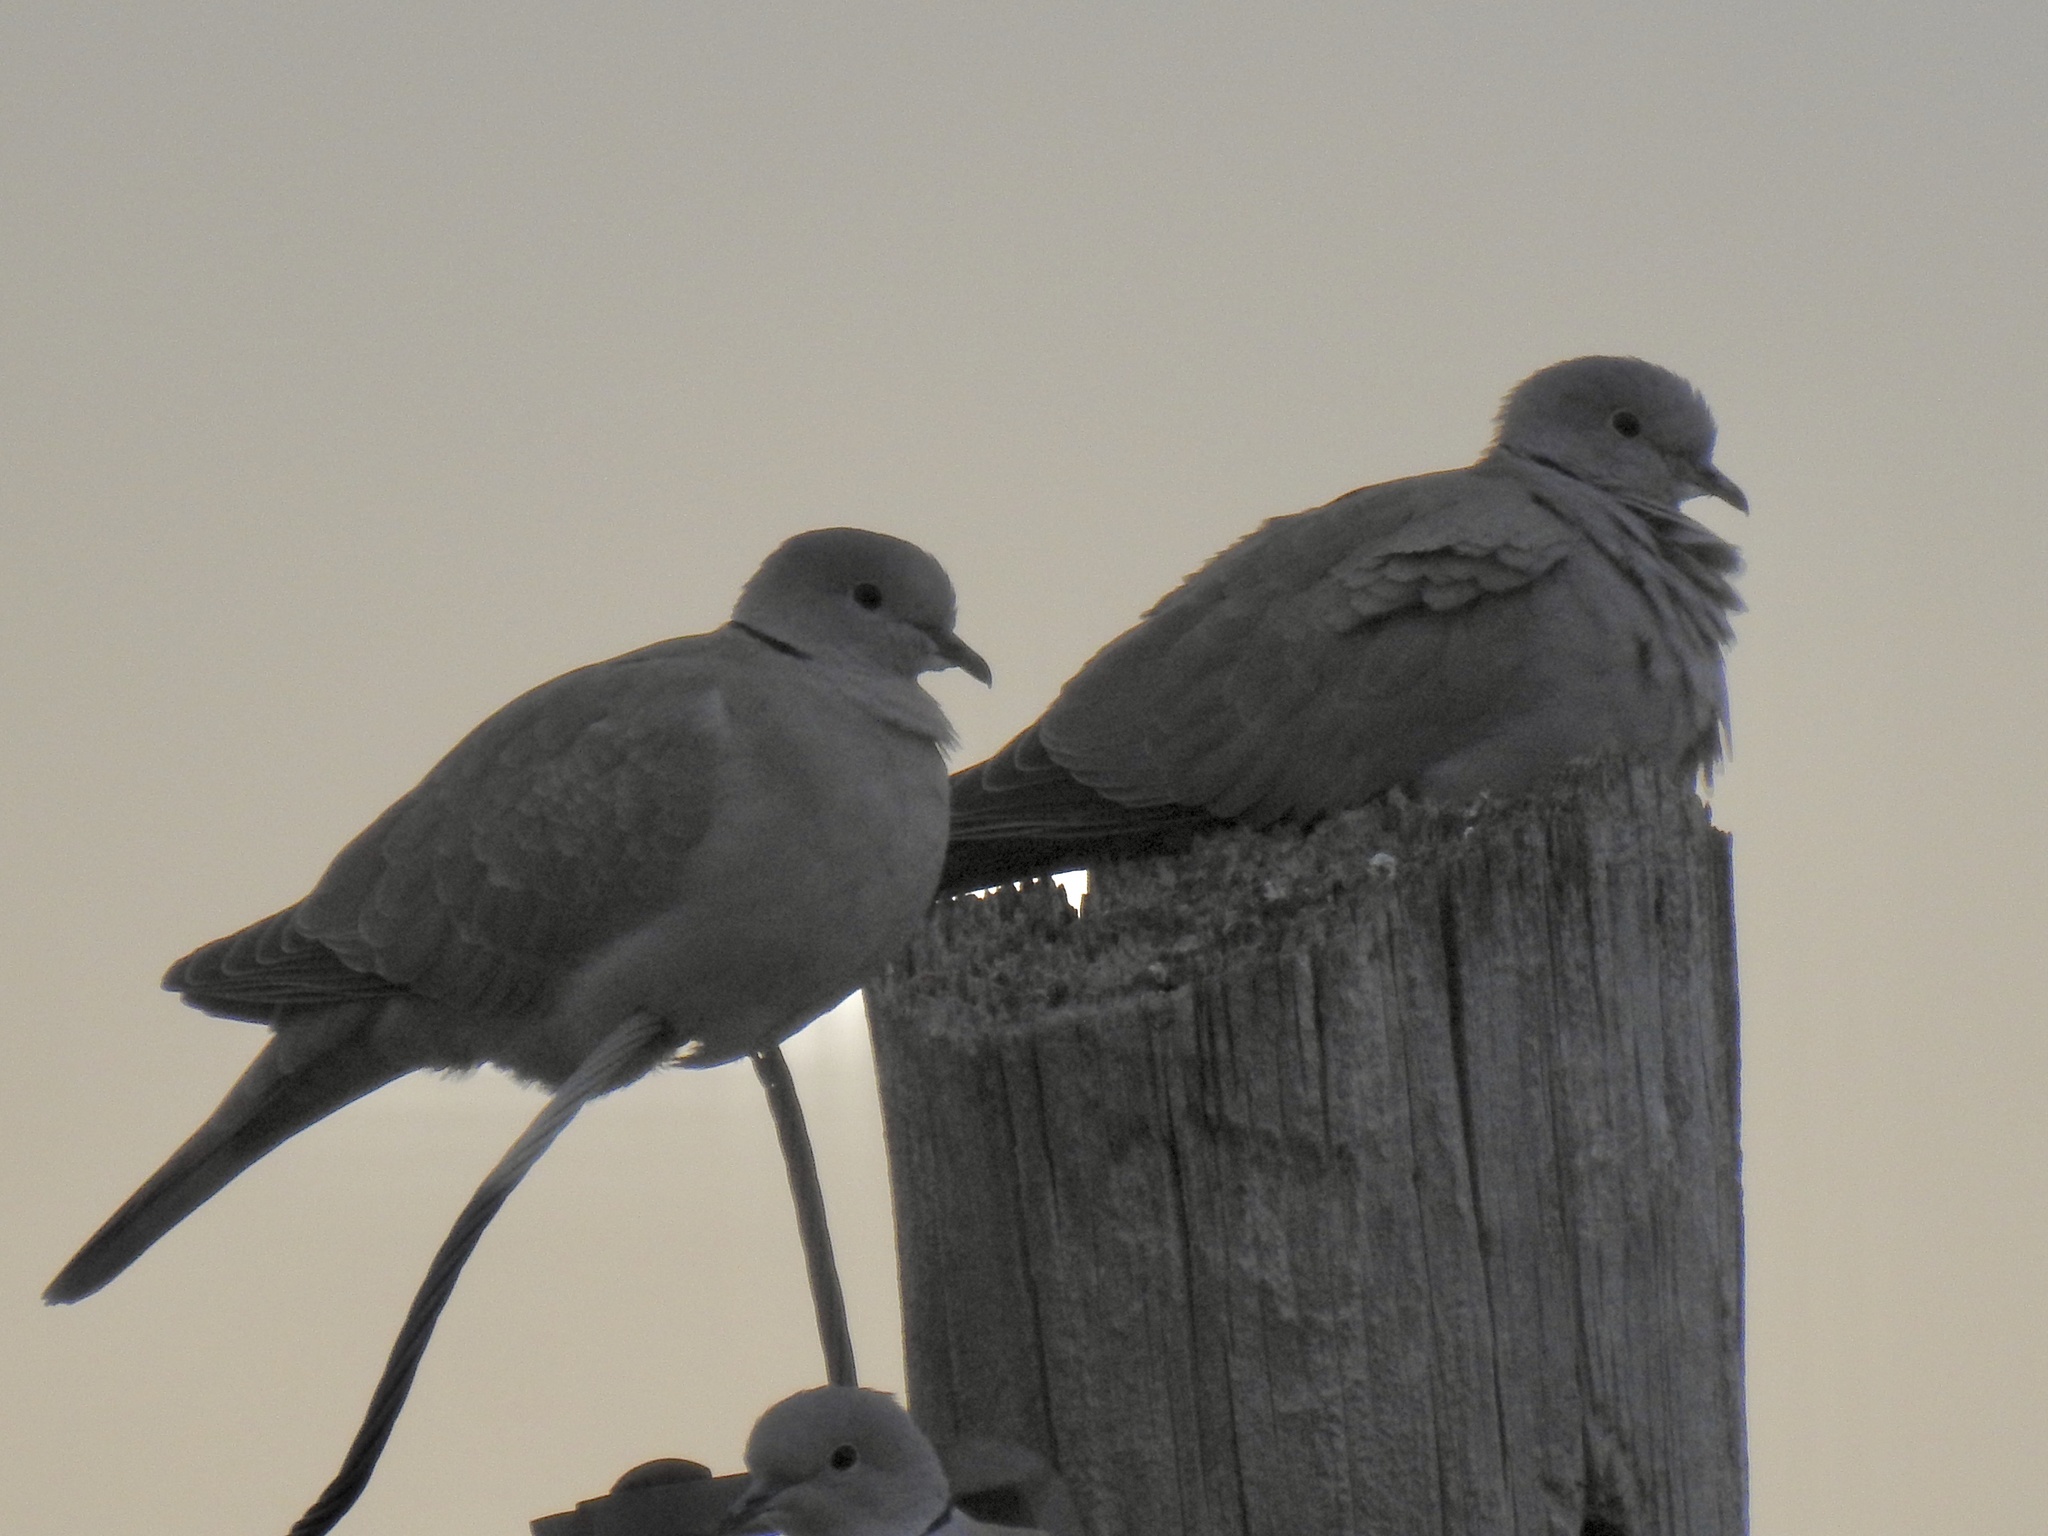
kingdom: Animalia
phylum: Chordata
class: Aves
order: Columbiformes
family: Columbidae
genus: Streptopelia
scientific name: Streptopelia decaocto
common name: Eurasian collared dove
